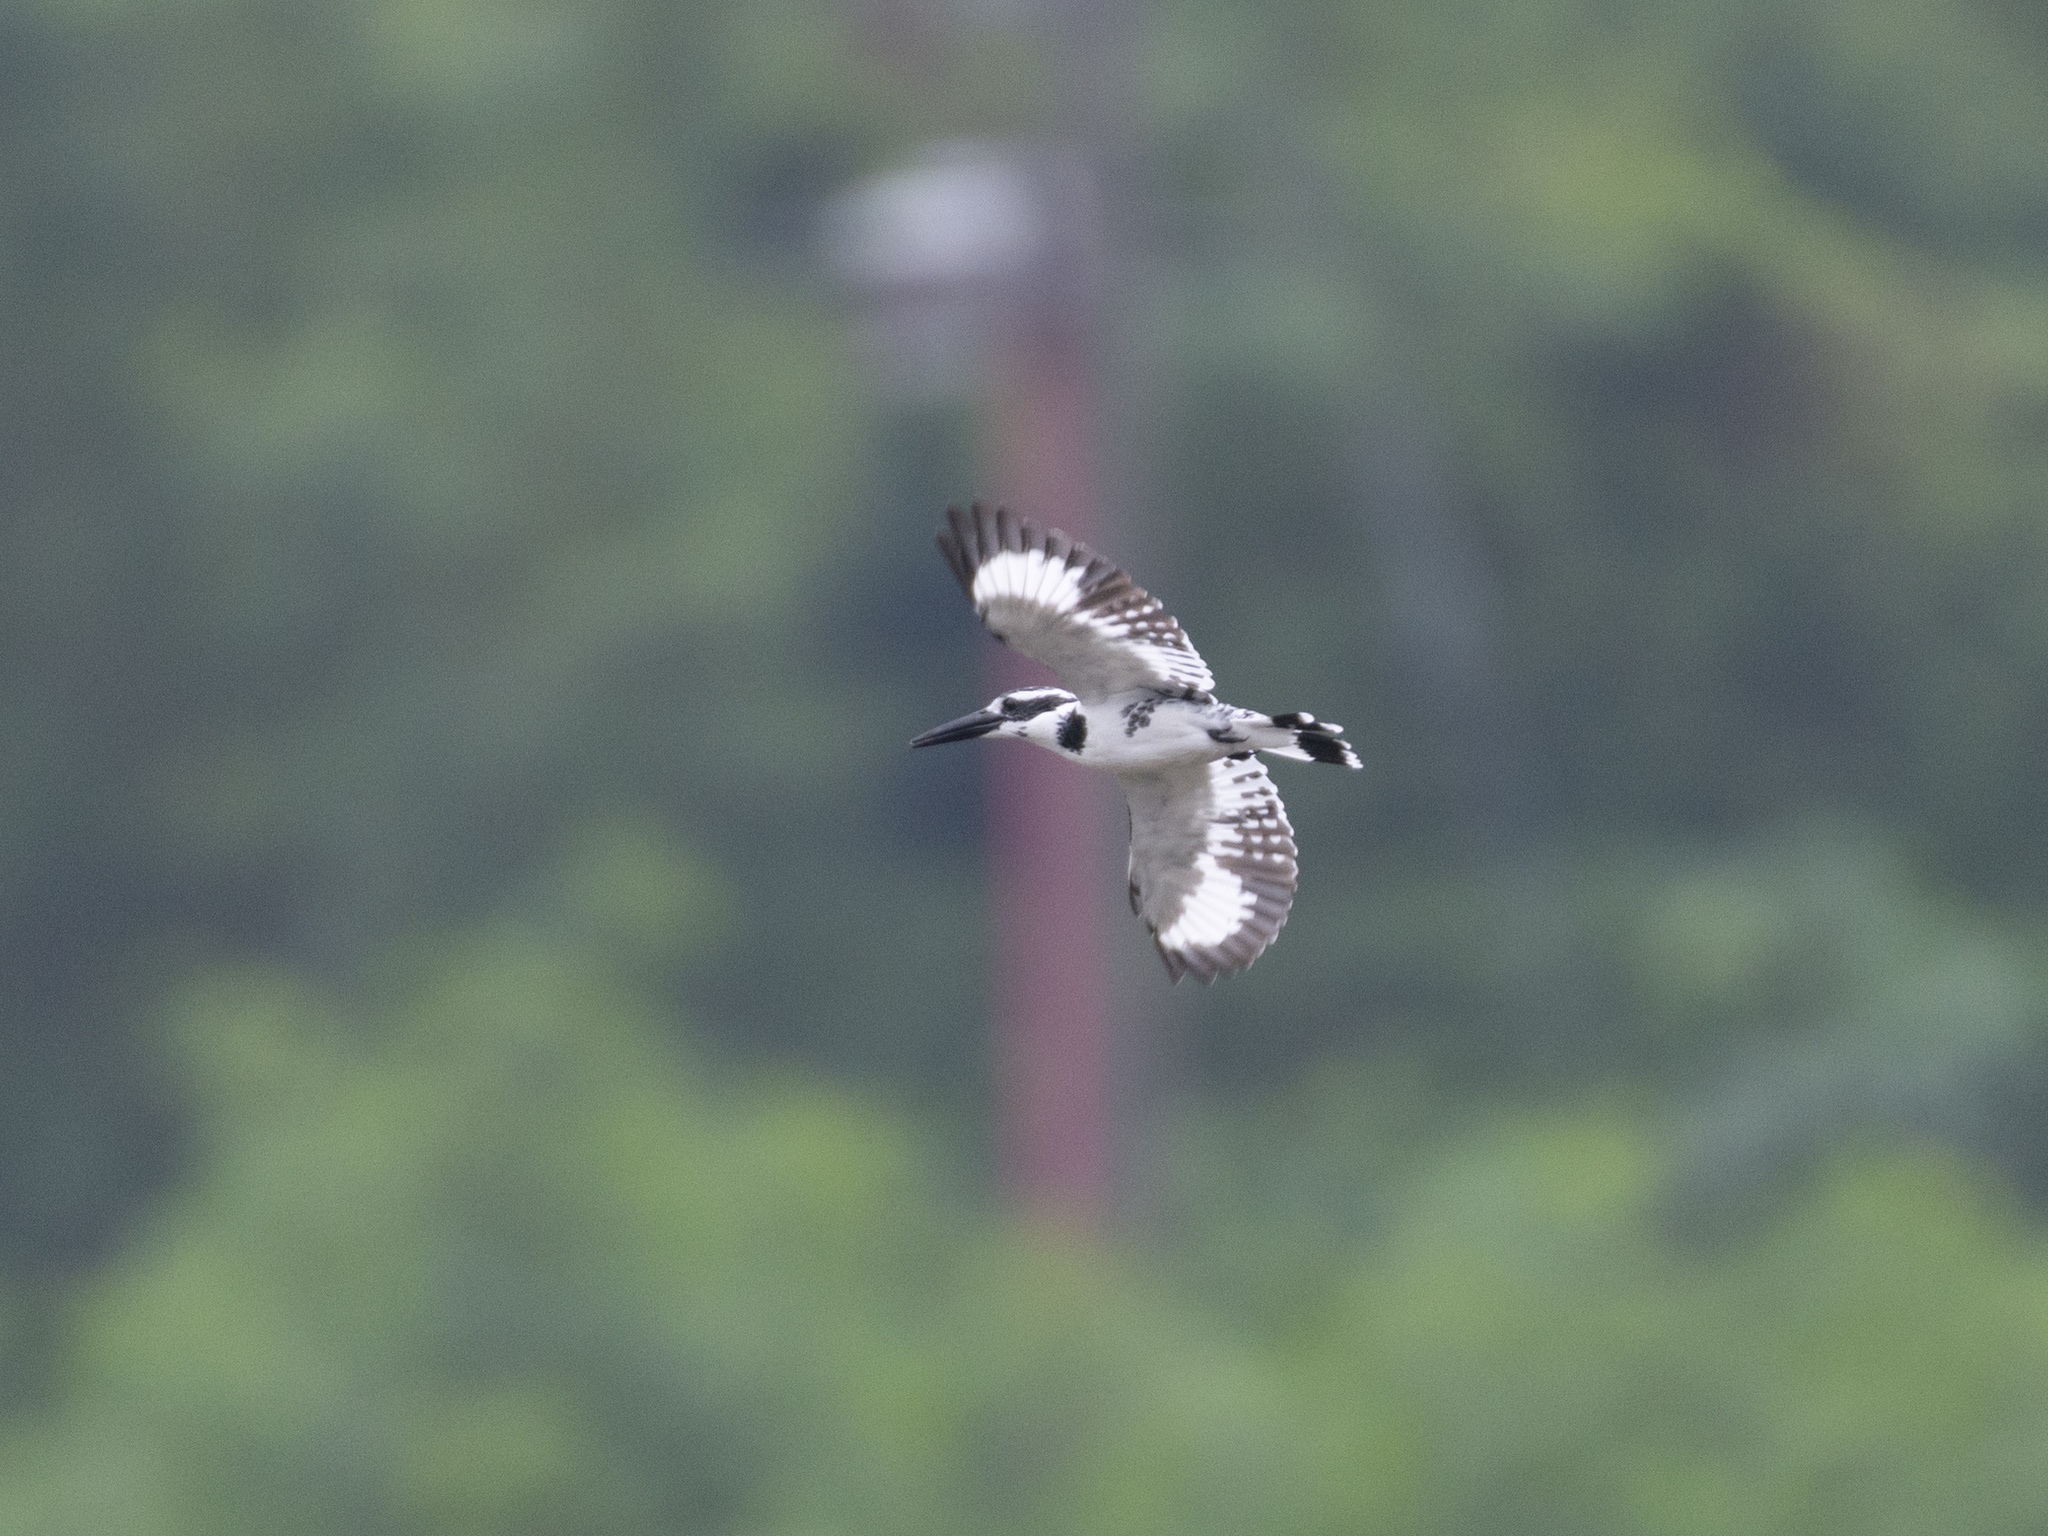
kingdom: Animalia
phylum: Chordata
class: Aves
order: Coraciiformes
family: Alcedinidae
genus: Ceryle
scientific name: Ceryle rudis
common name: Pied kingfisher
